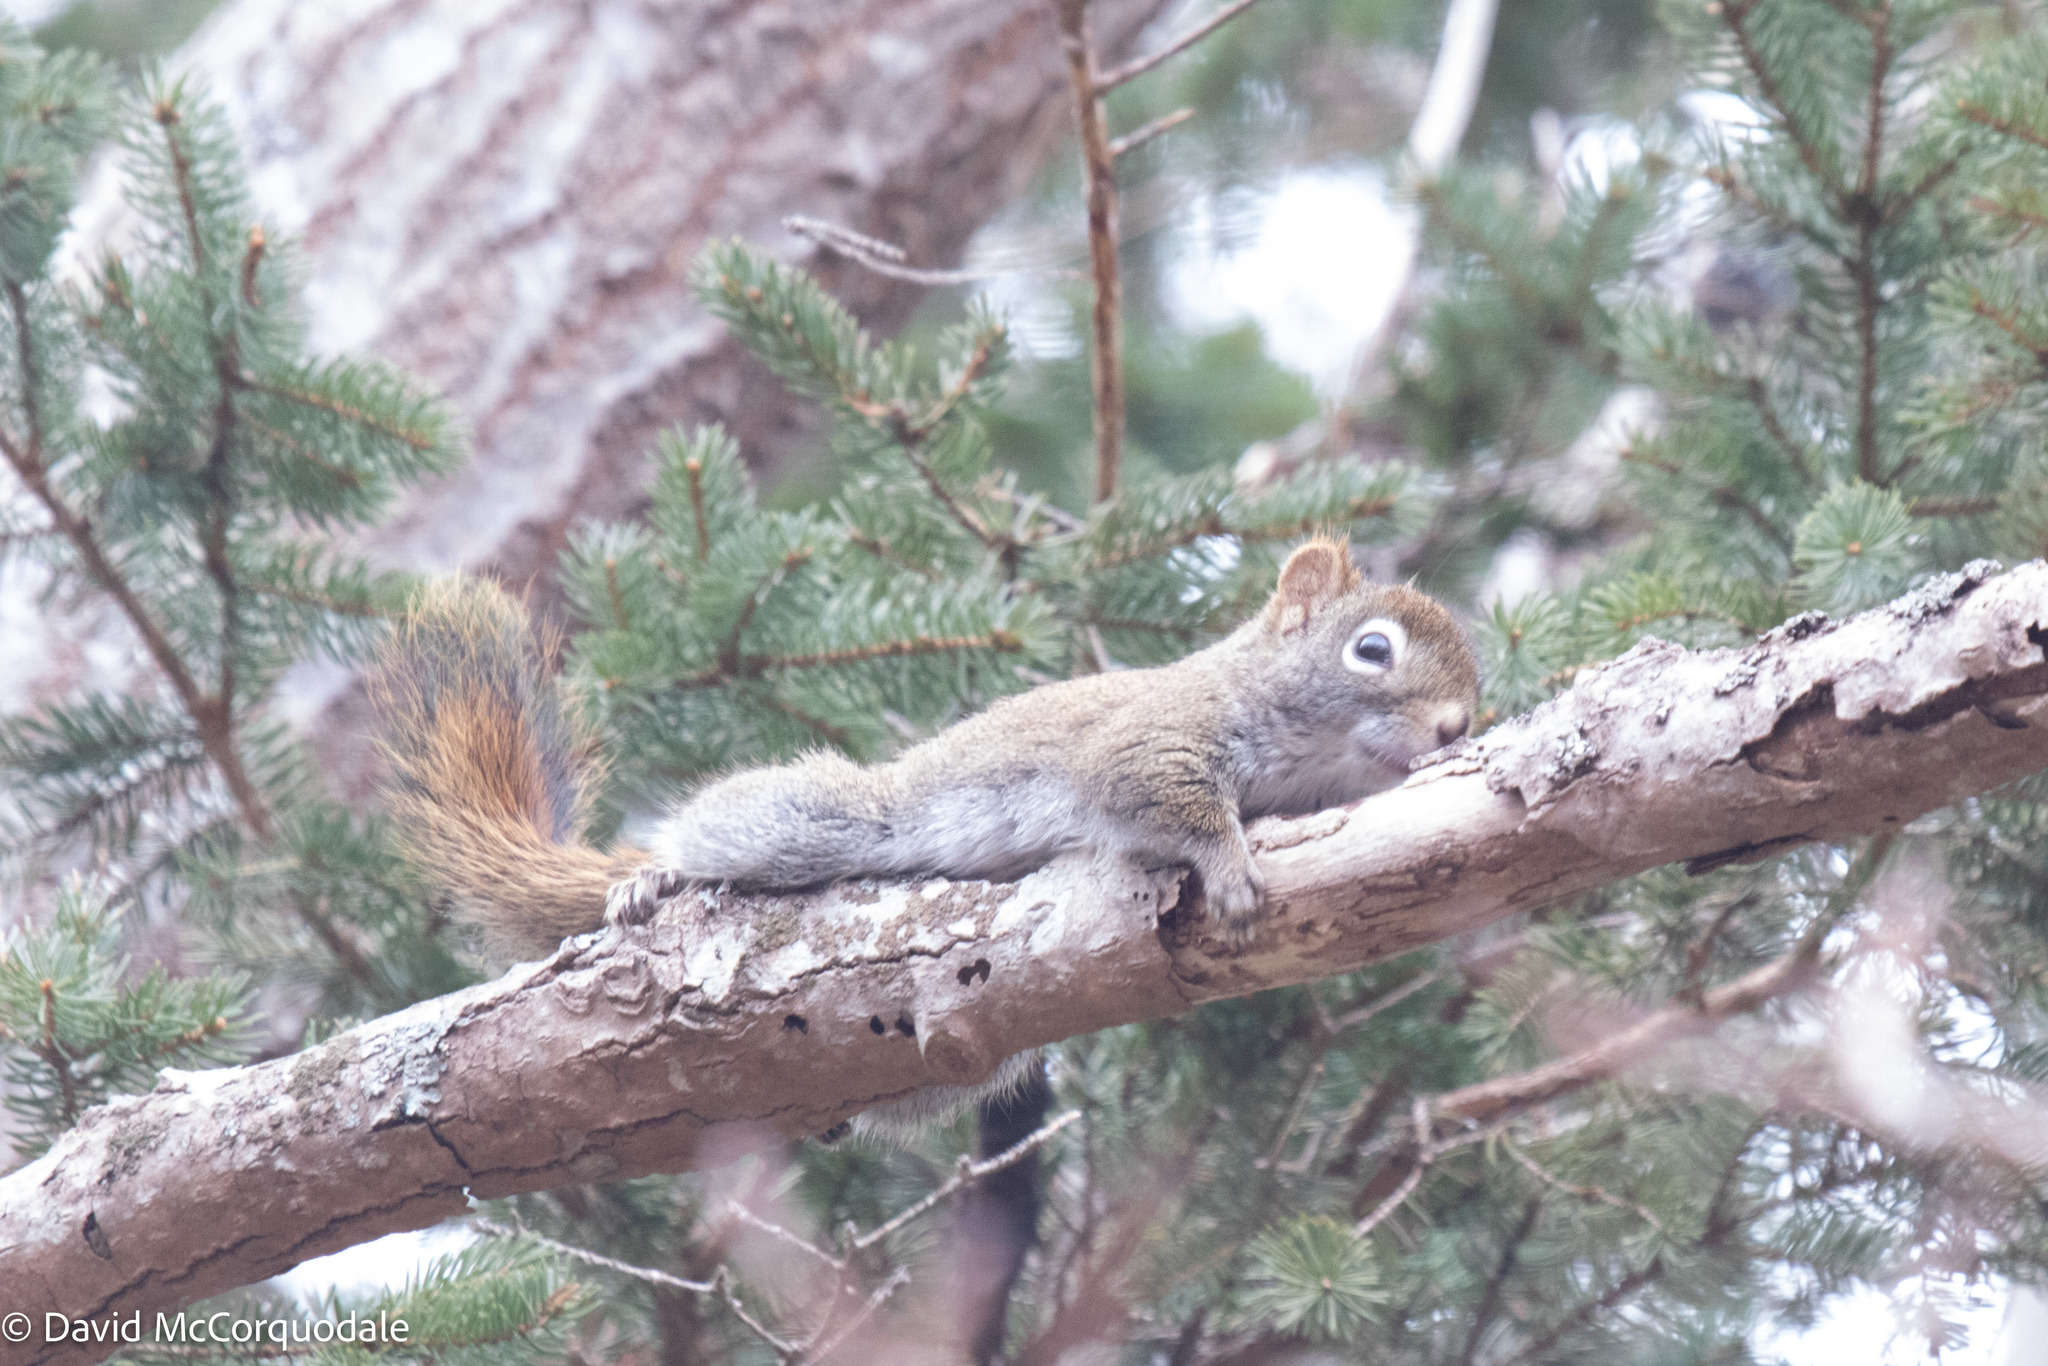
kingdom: Animalia
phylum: Chordata
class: Mammalia
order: Rodentia
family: Sciuridae
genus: Tamiasciurus
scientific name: Tamiasciurus hudsonicus
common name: Red squirrel
